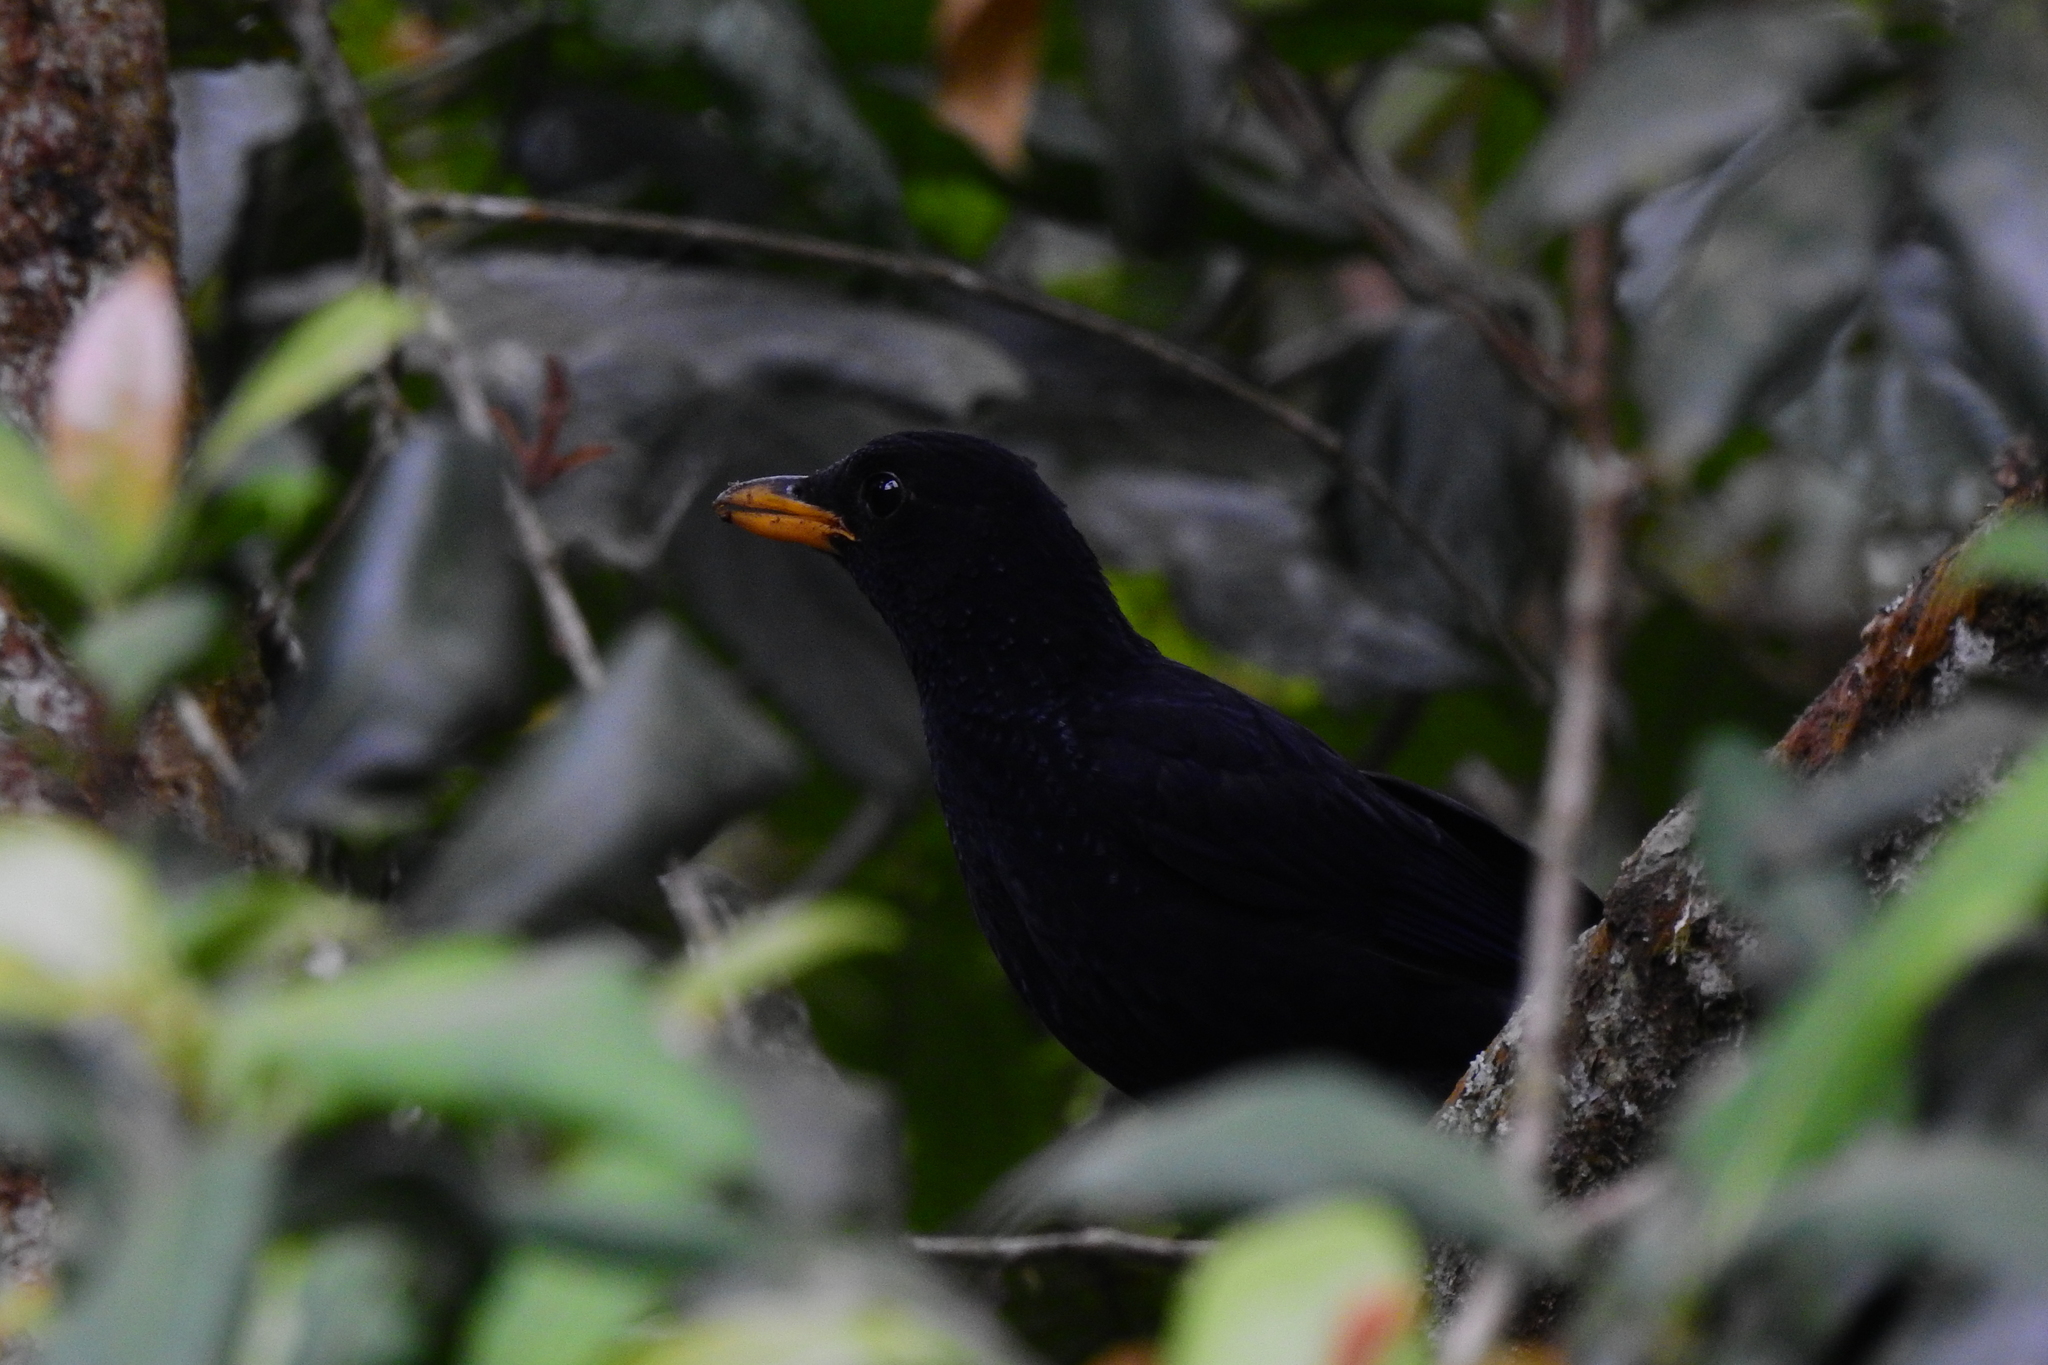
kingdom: Animalia
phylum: Chordata
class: Aves
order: Passeriformes
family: Muscicapidae
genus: Myophonus
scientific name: Myophonus caeruleus
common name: Blue whistling-thrush
